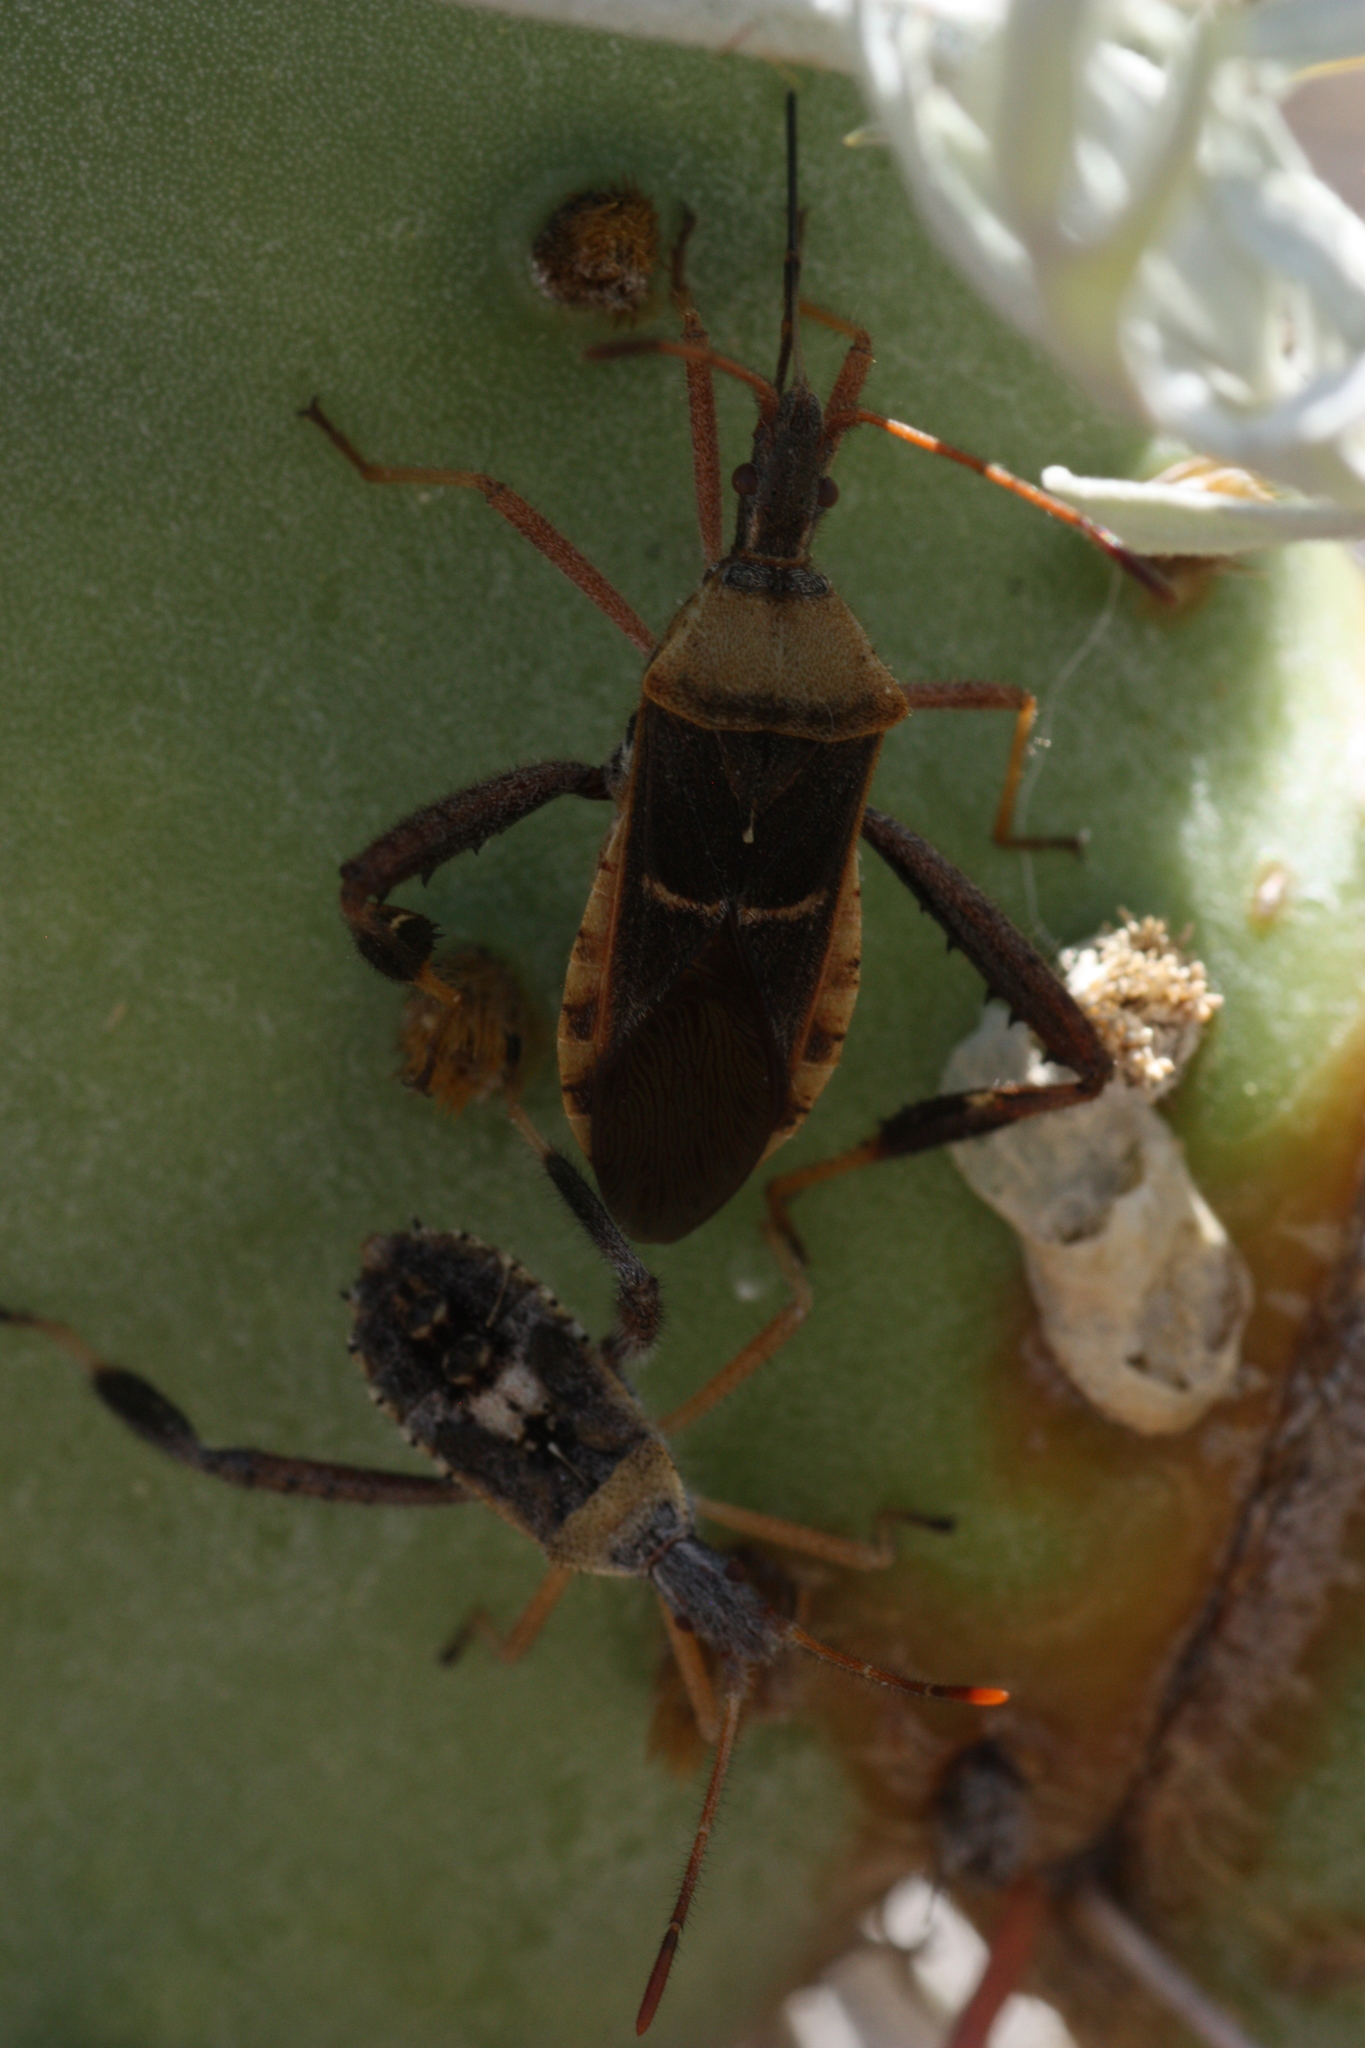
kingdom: Animalia
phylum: Arthropoda
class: Insecta
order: Hemiptera
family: Coreidae
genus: Narnia
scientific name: Narnia snowi
